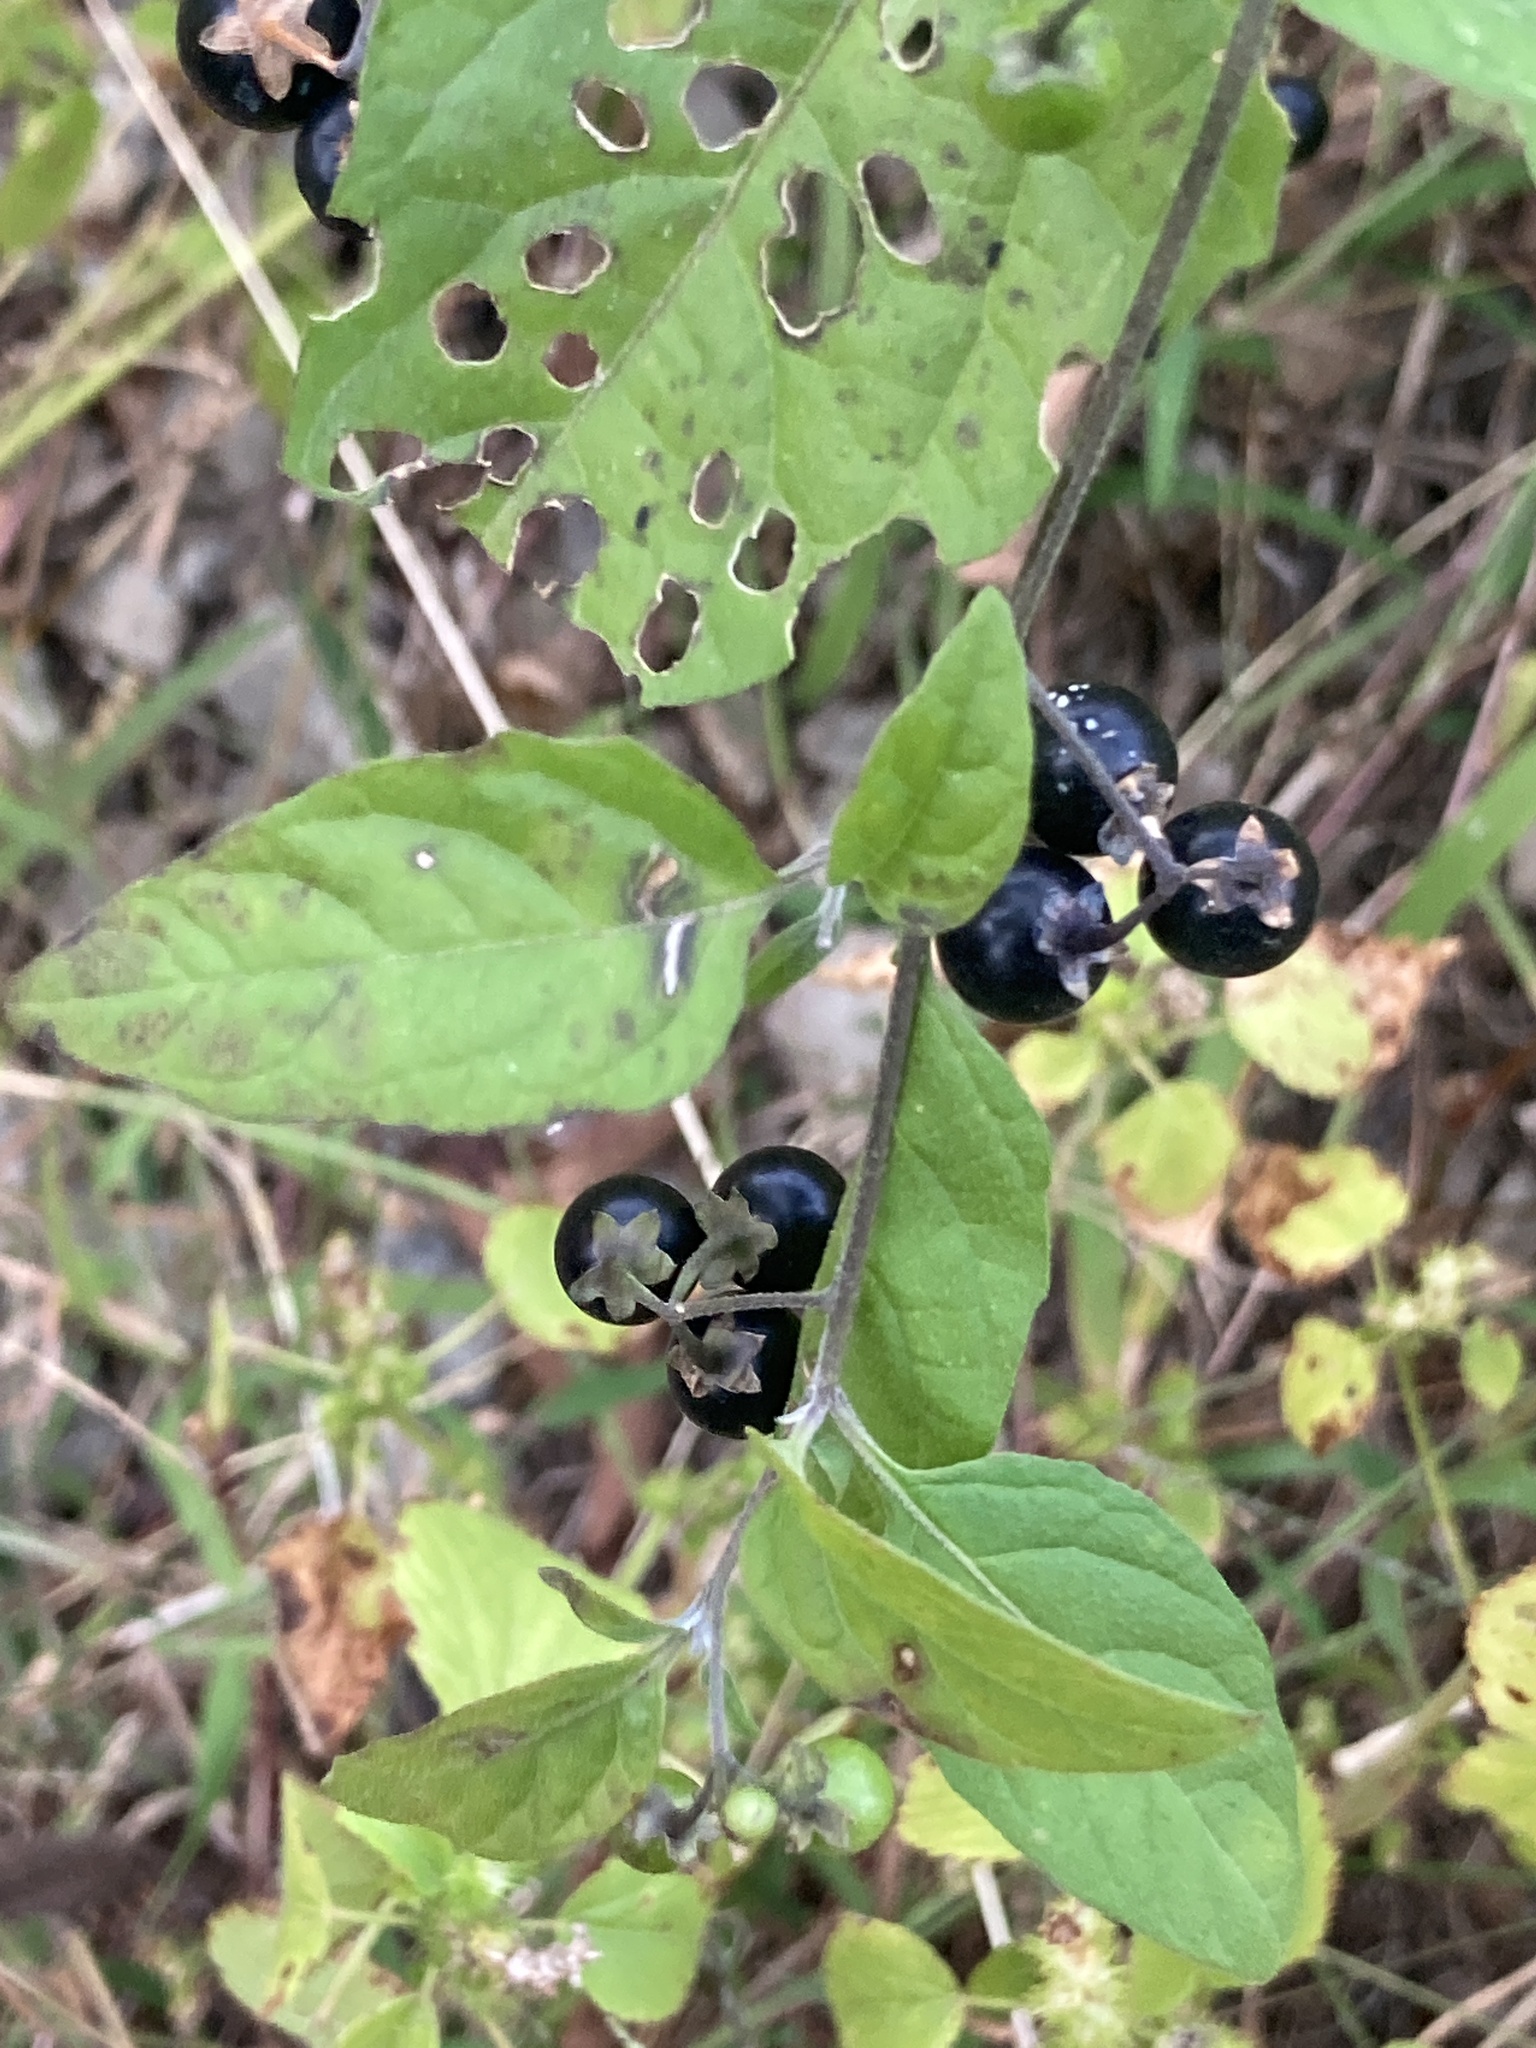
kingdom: Plantae
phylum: Tracheophyta
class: Magnoliopsida
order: Solanales
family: Solanaceae
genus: Solanum
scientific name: Solanum emulans
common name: Eastern black nightshade
